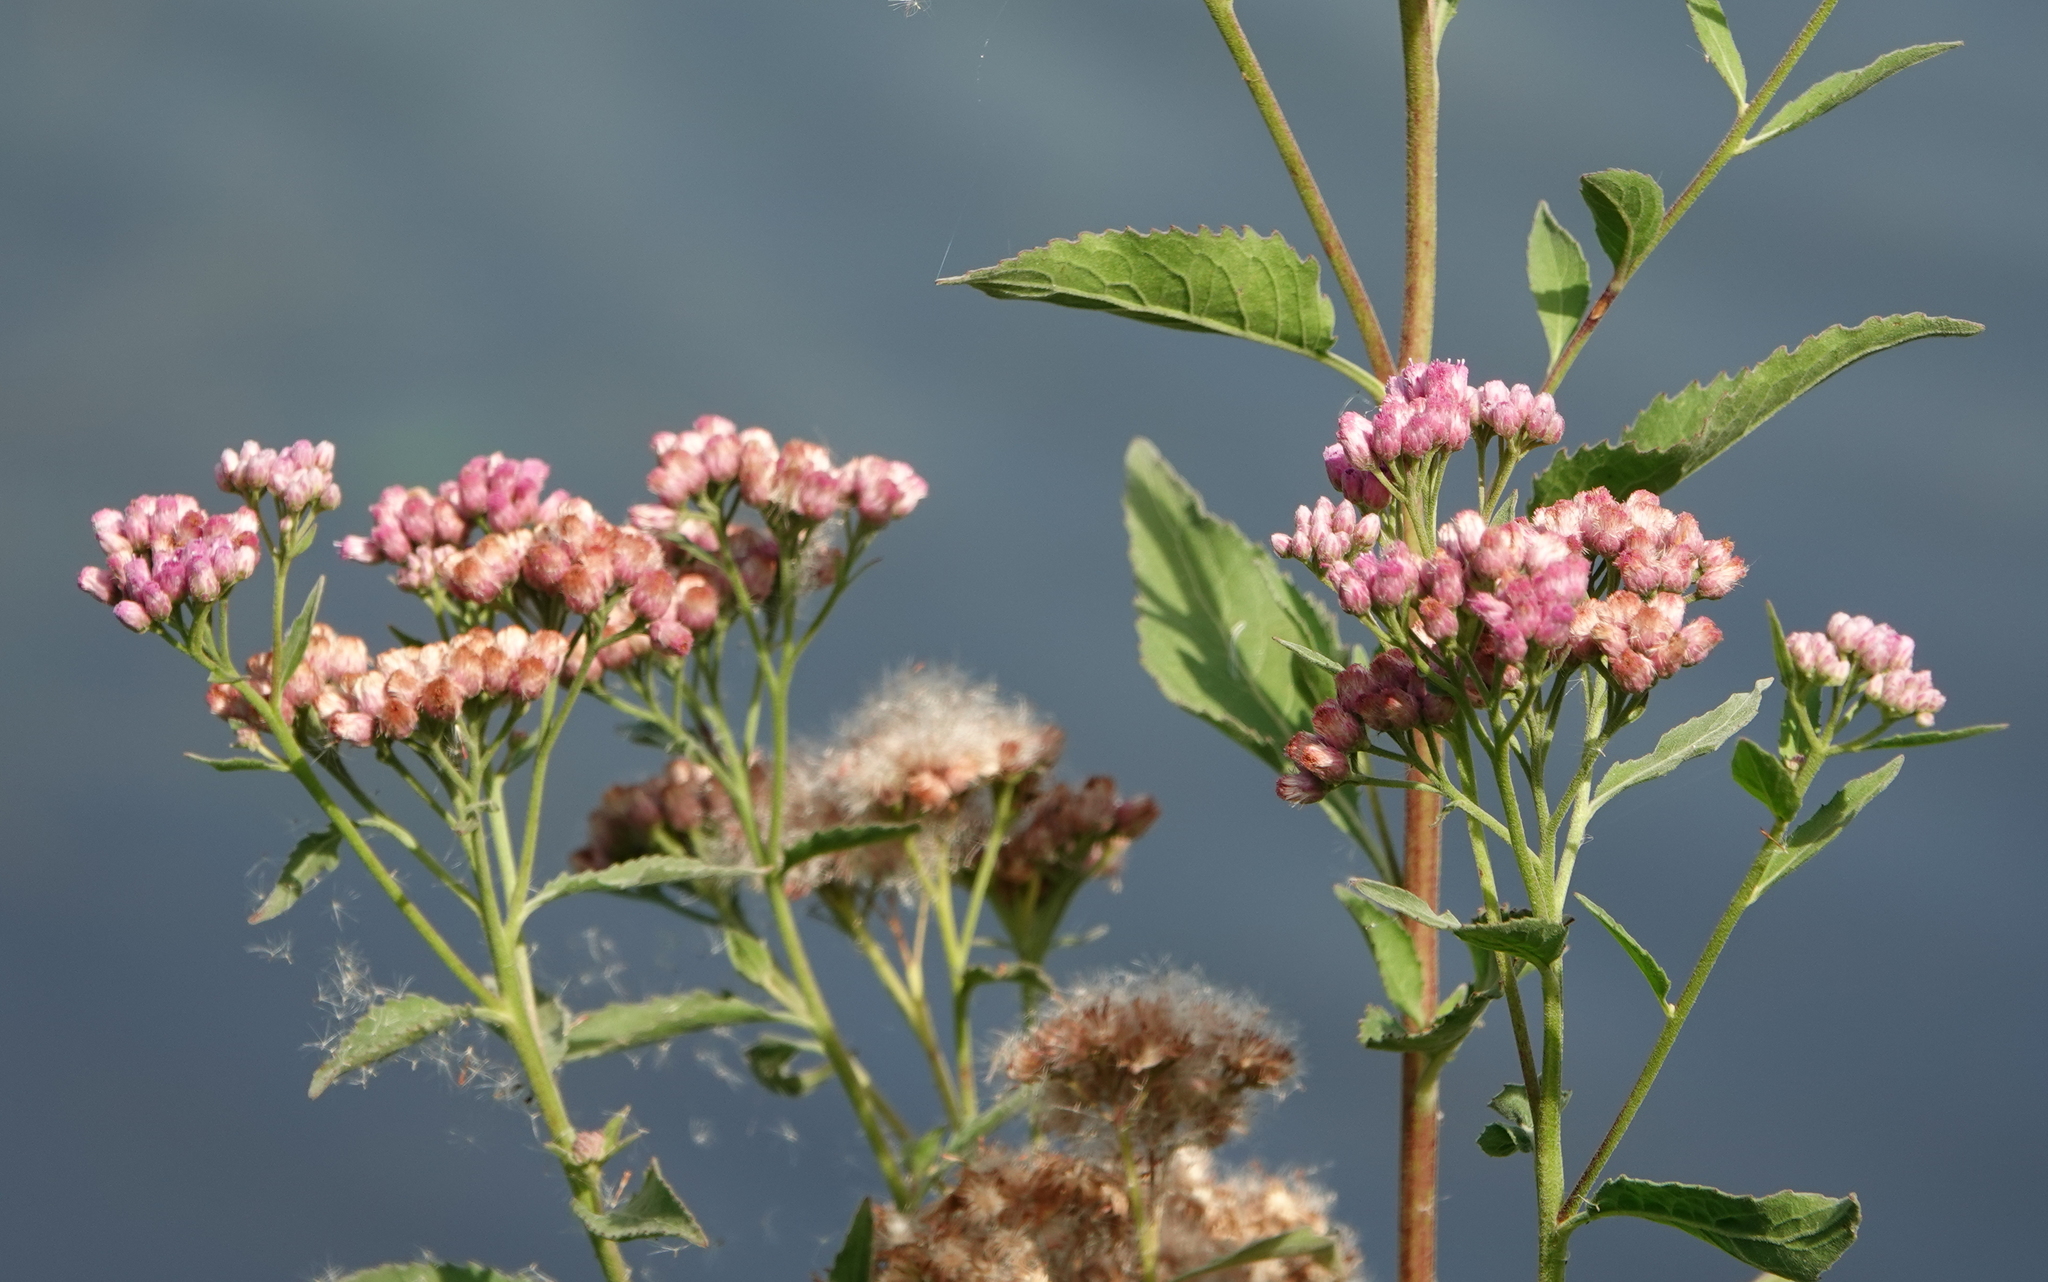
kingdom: Plantae
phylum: Tracheophyta
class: Magnoliopsida
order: Asterales
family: Asteraceae
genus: Pluchea
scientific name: Pluchea odorata
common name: Saltmarsh fleabane
